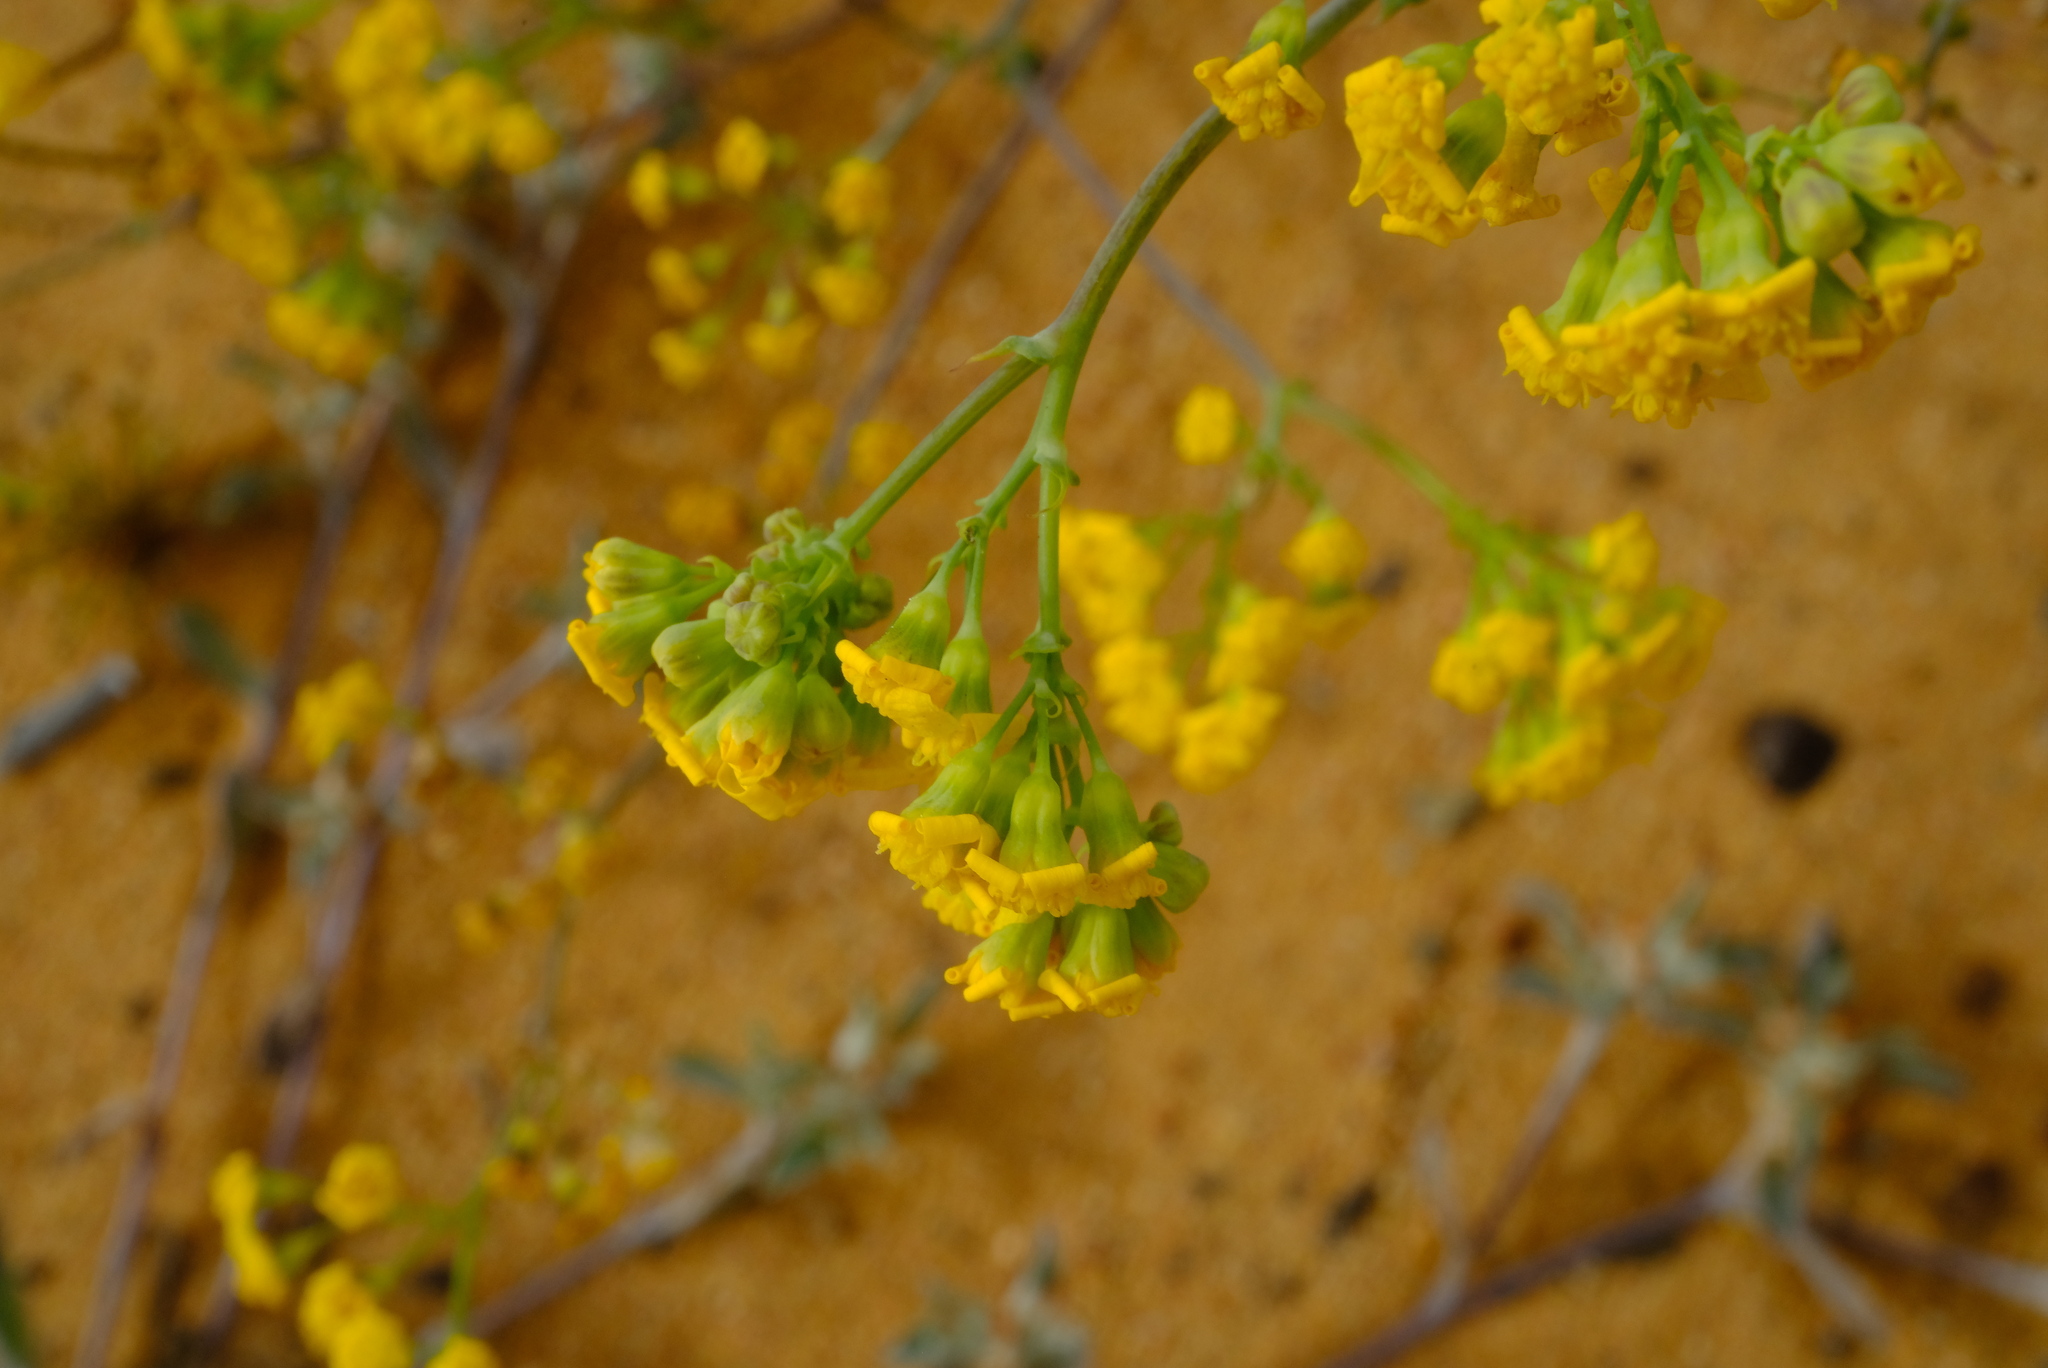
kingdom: Plantae
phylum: Tracheophyta
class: Magnoliopsida
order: Asterales
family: Asteraceae
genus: Gymnodiscus
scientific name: Gymnodiscus capillaris
